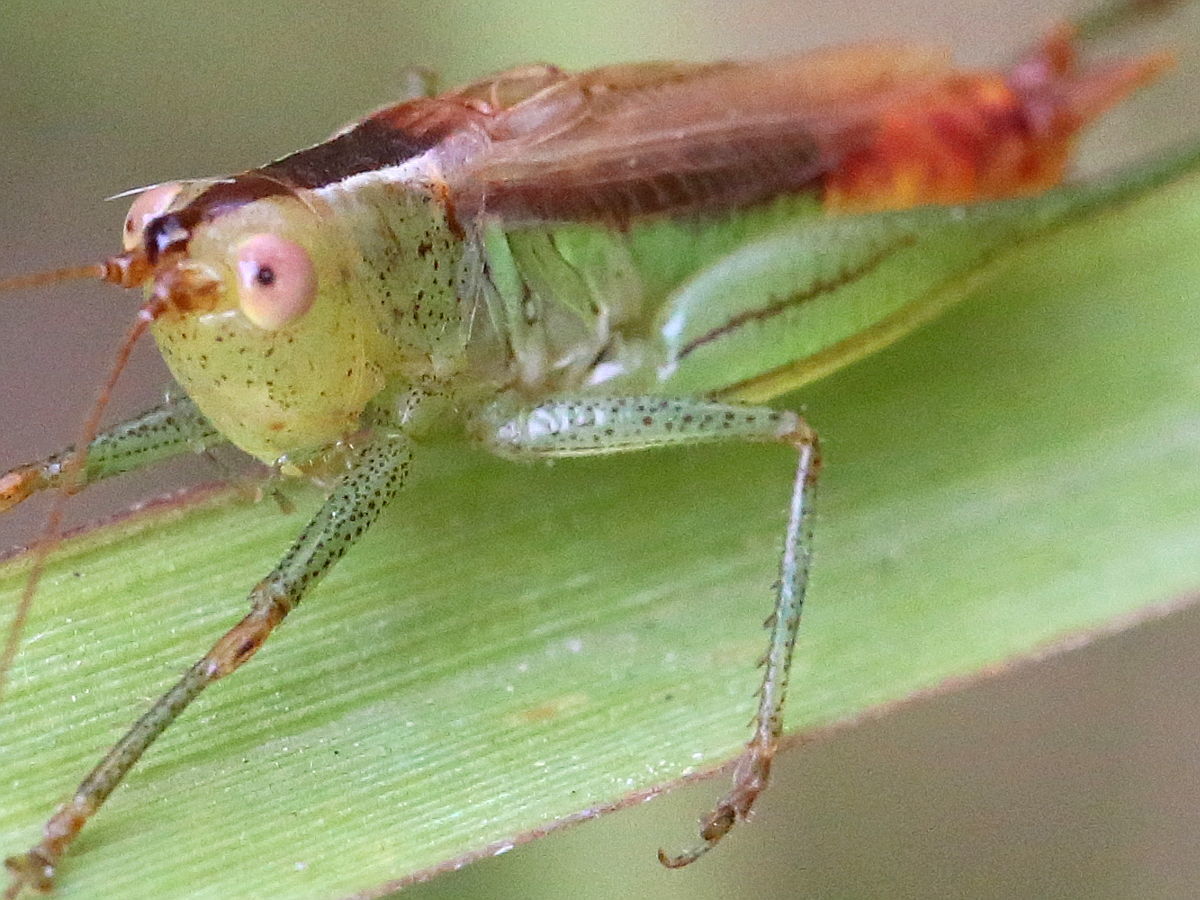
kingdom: Animalia
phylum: Arthropoda
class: Insecta
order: Orthoptera
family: Tettigoniidae
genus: Conocephalus
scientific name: Conocephalus brevipennis
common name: Short-winged meadow katydid
